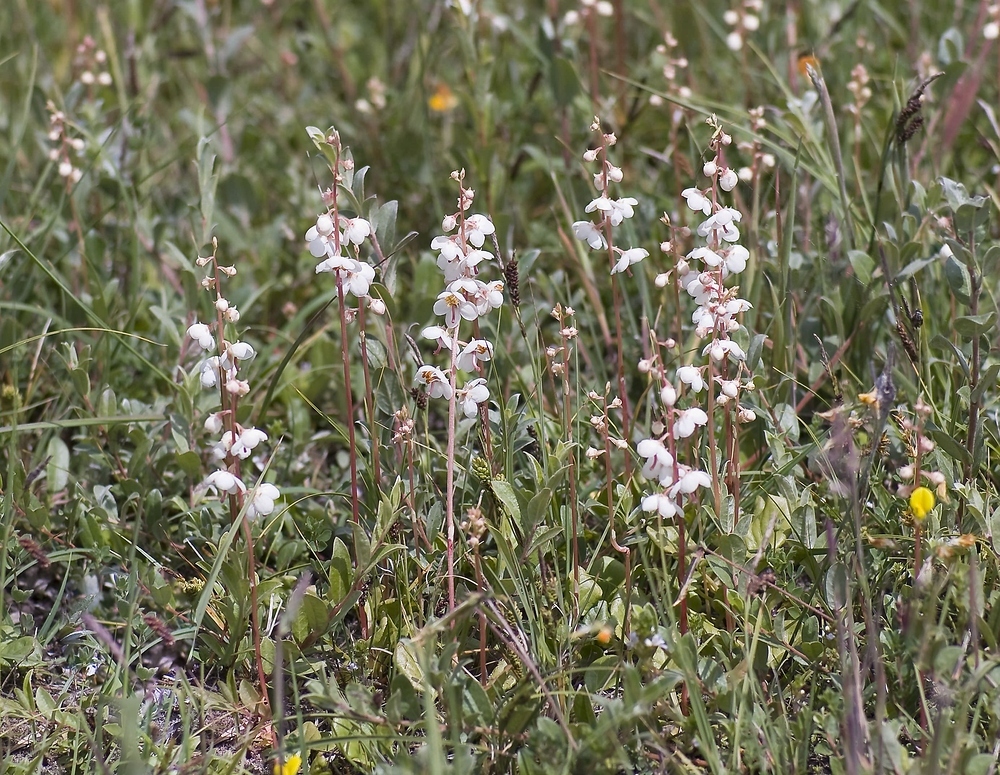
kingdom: Plantae
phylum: Tracheophyta
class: Magnoliopsida
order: Ericales
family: Ericaceae
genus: Pyrola
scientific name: Pyrola rotundifolia
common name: Round-leaved wintergreen
